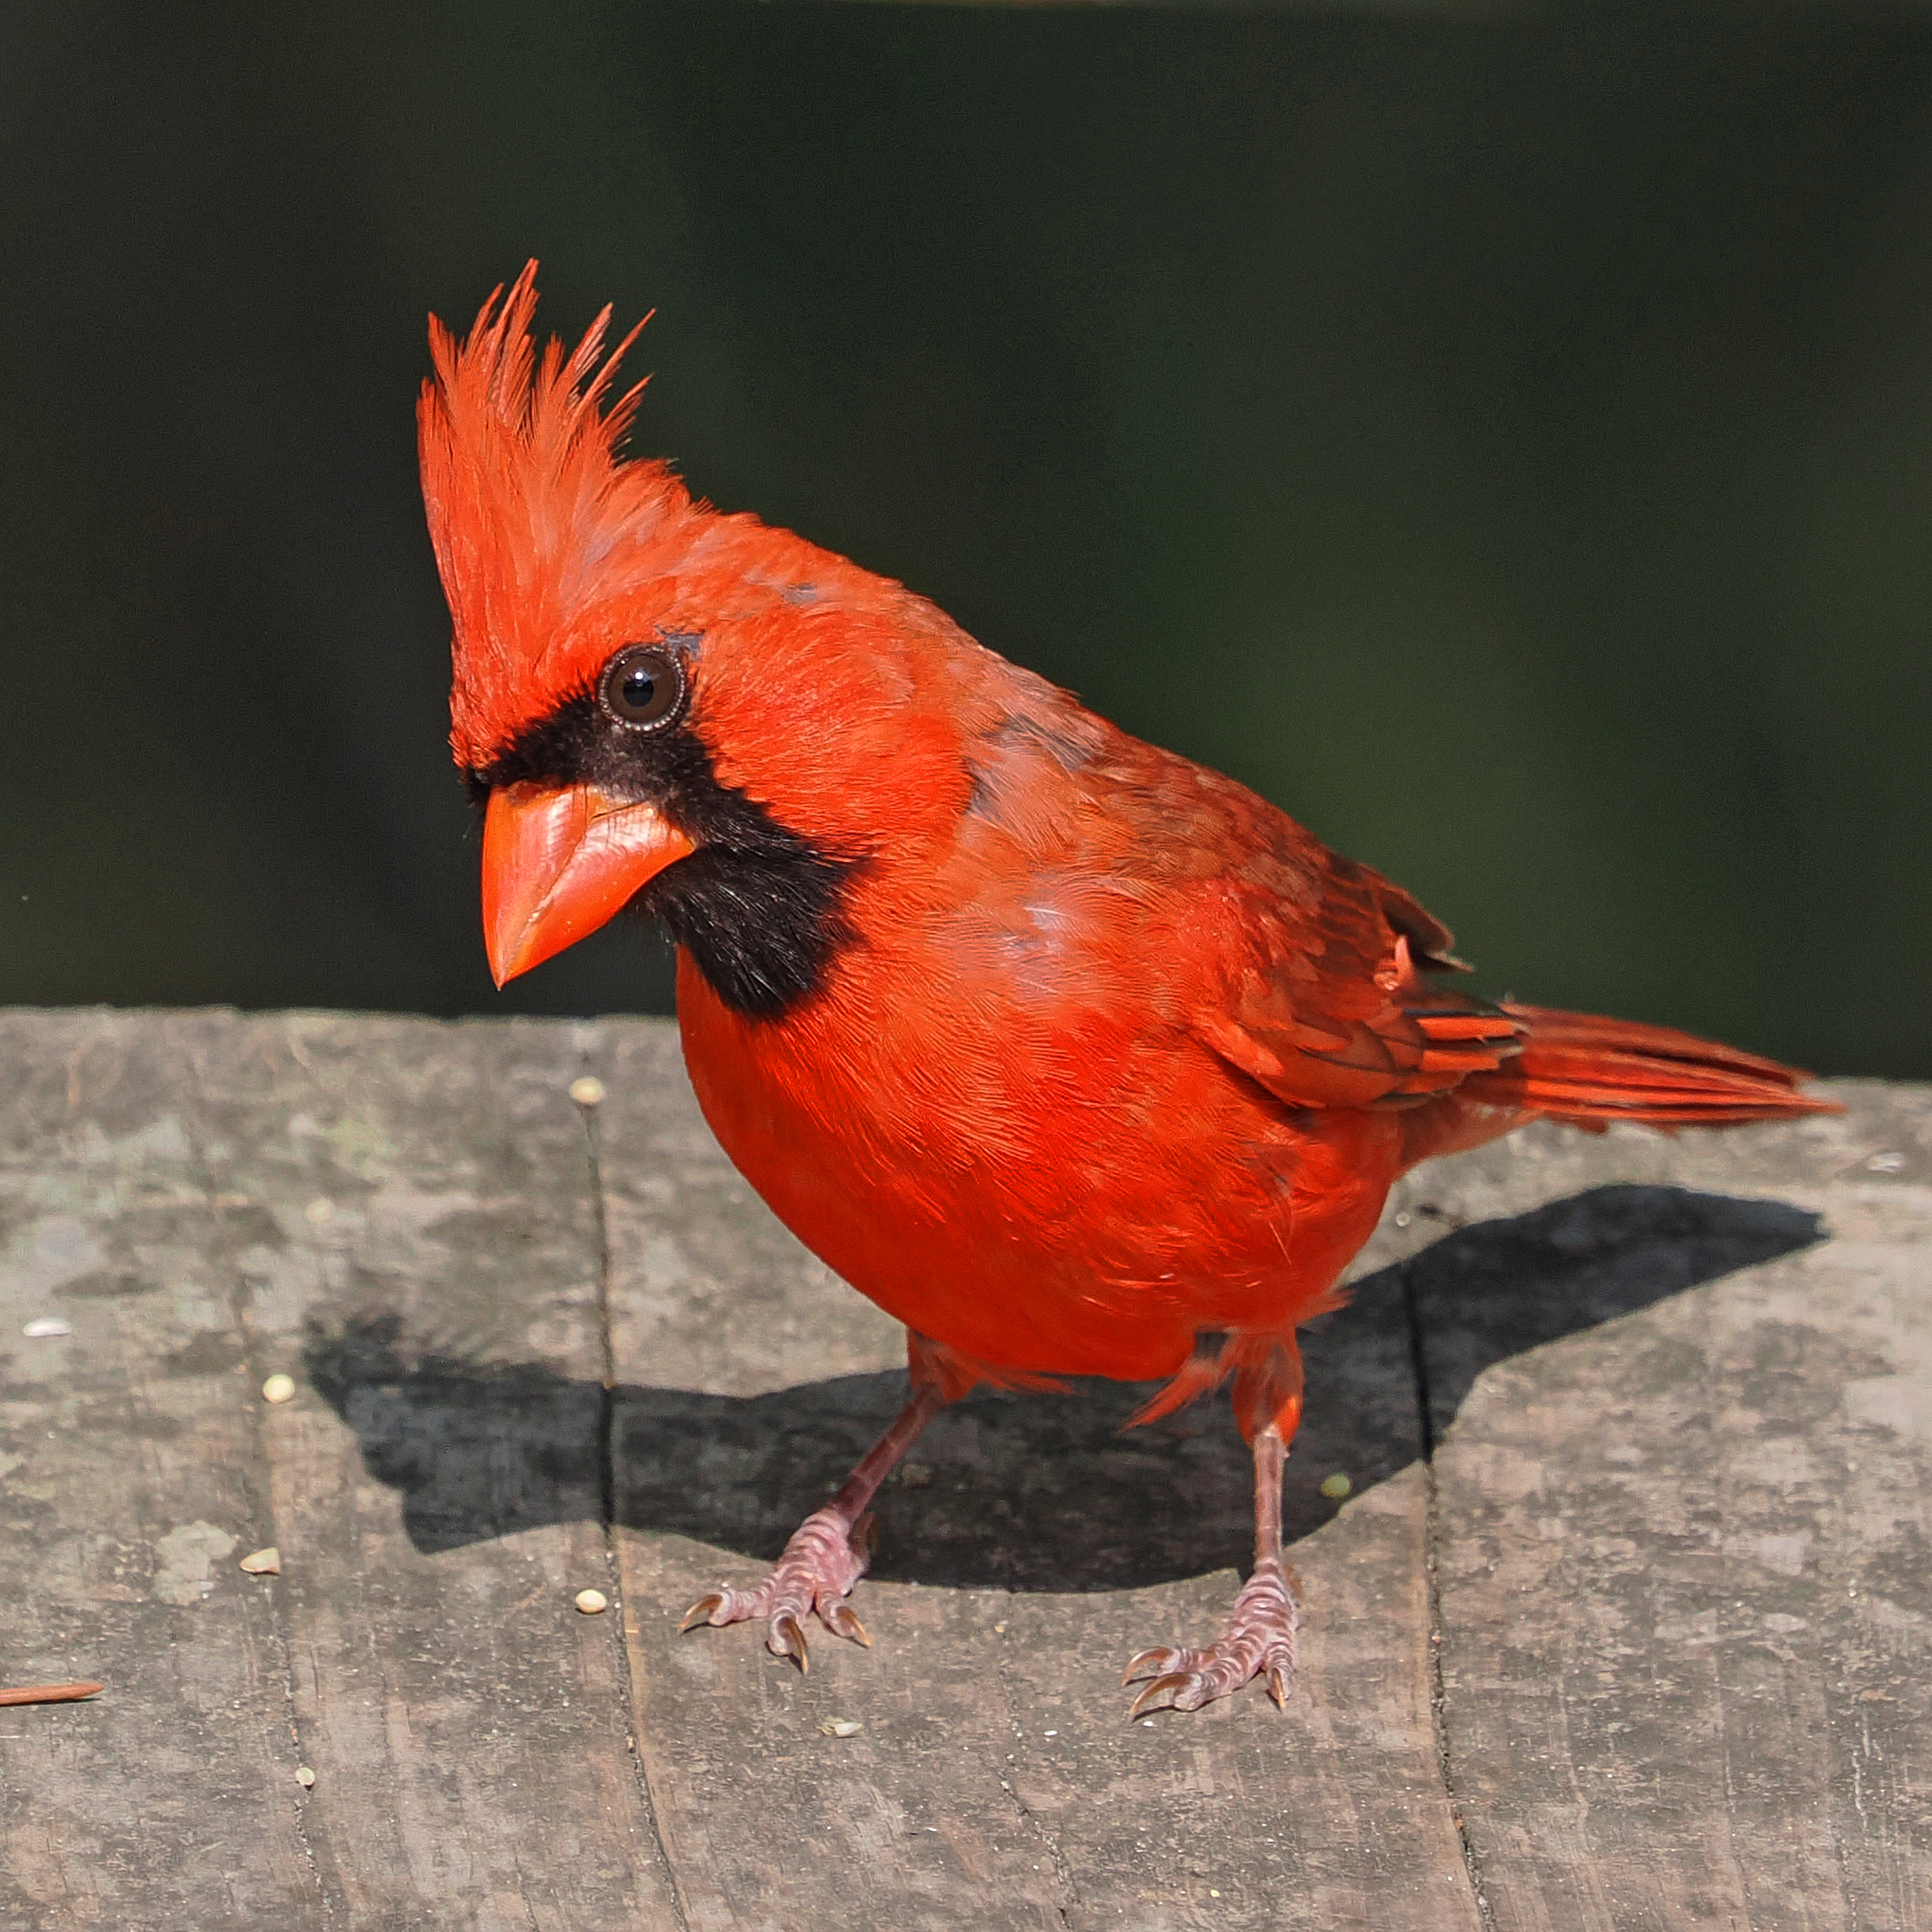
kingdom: Animalia
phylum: Chordata
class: Aves
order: Passeriformes
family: Cardinalidae
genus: Cardinalis
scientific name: Cardinalis cardinalis
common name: Northern cardinal
